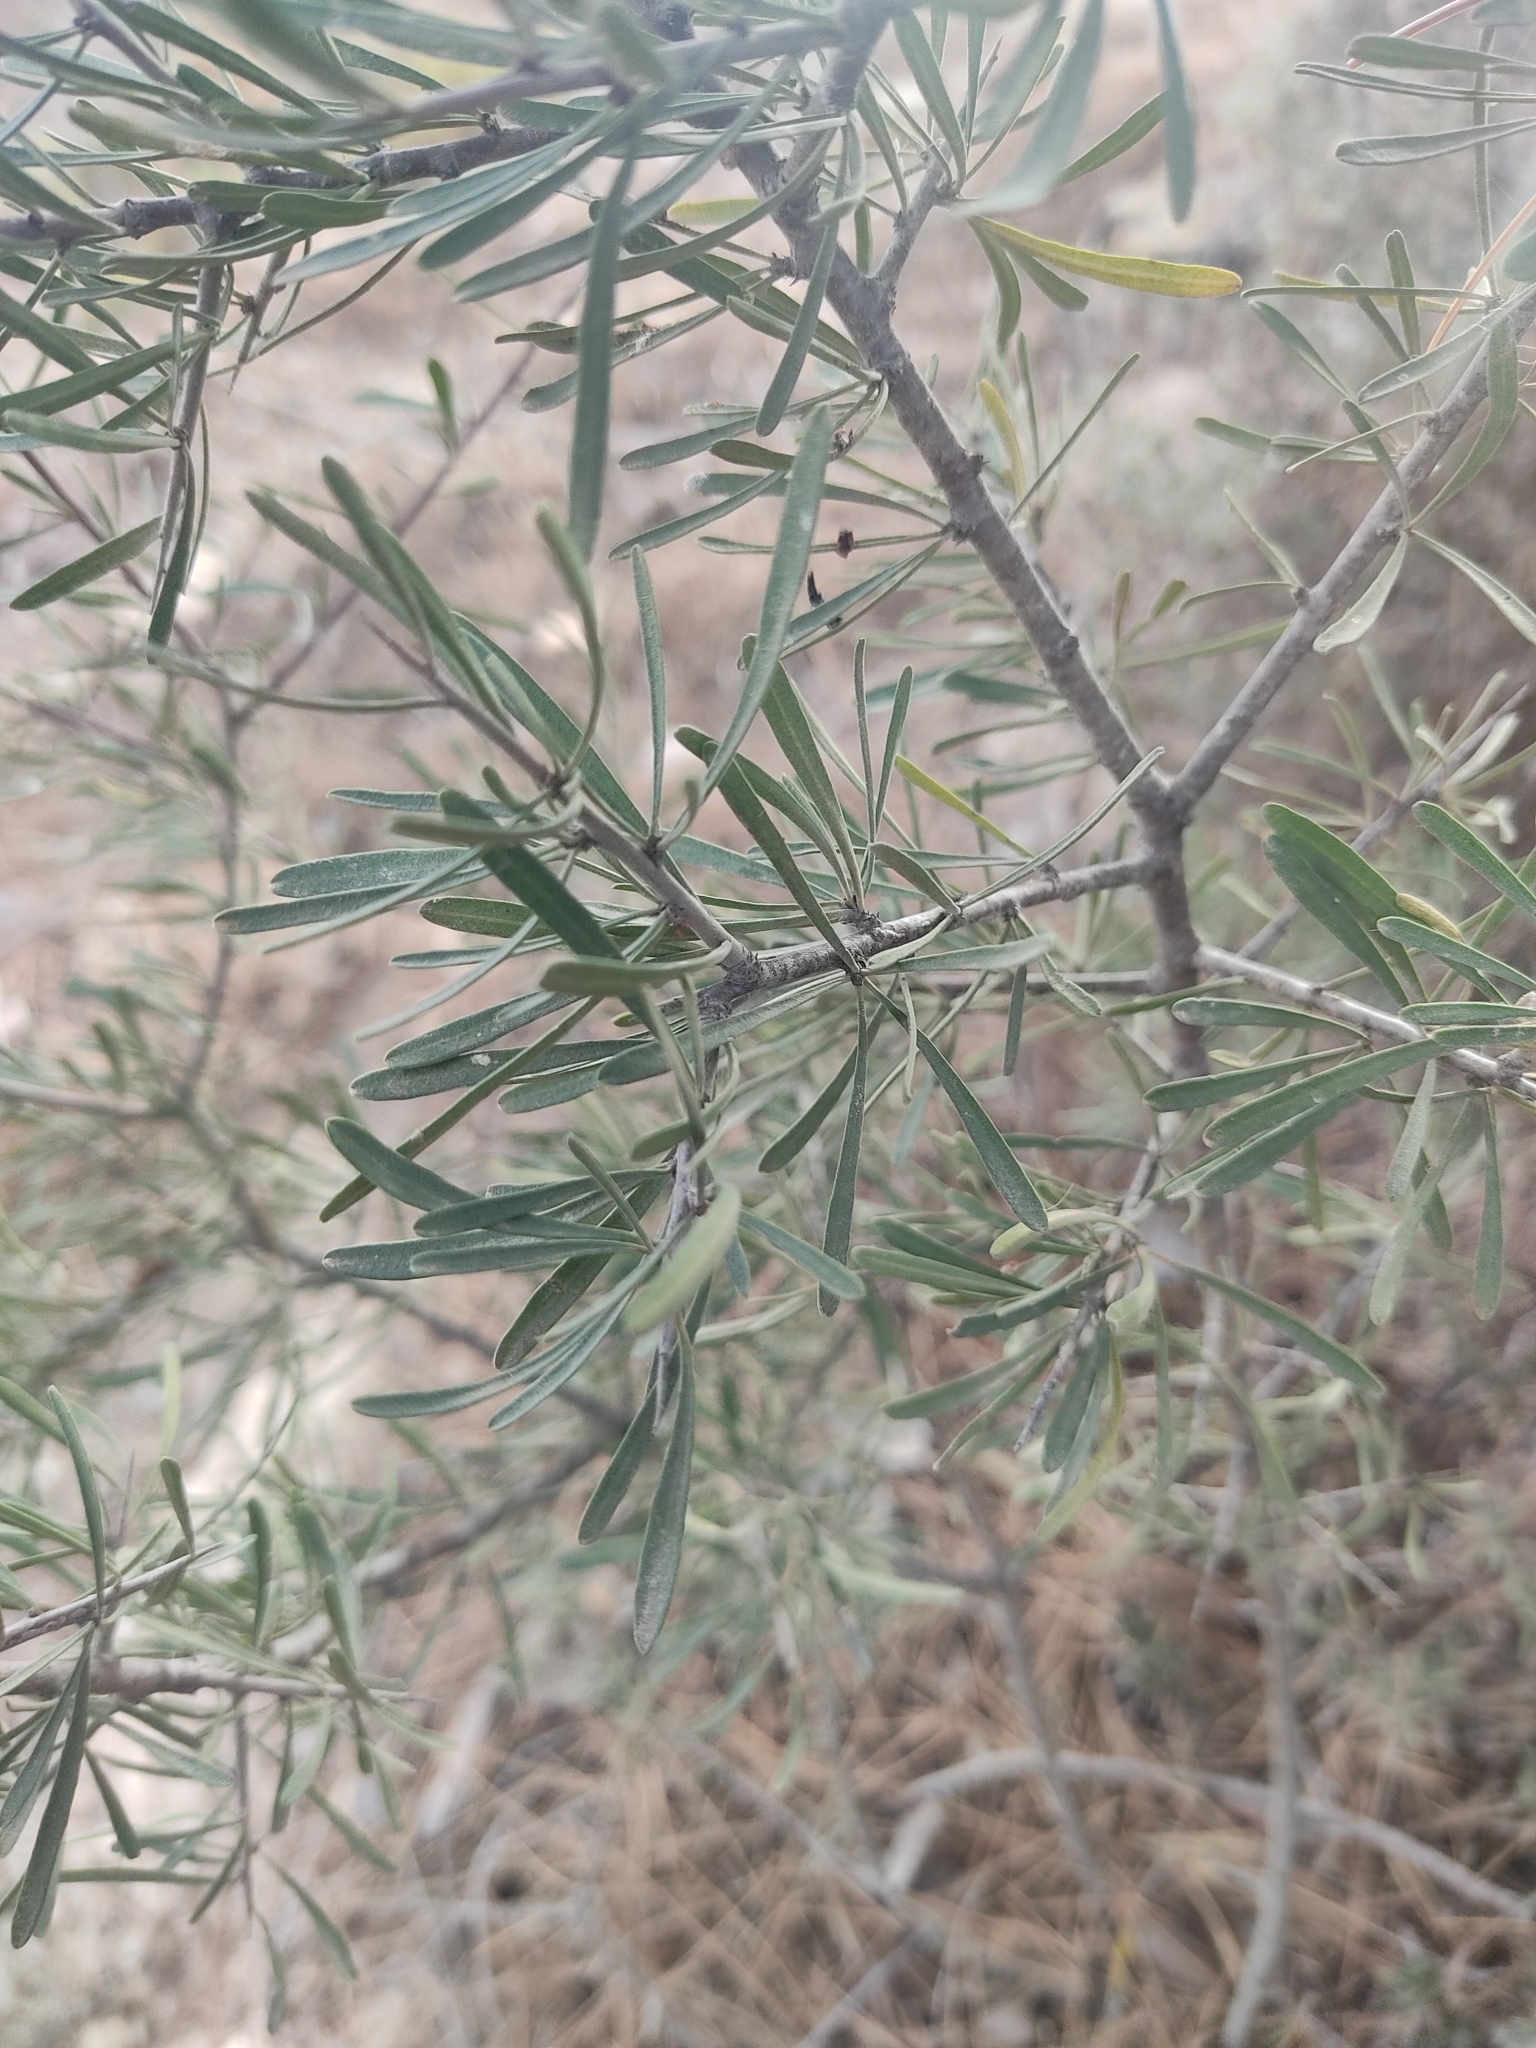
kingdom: Plantae
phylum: Tracheophyta
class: Magnoliopsida
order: Rosales
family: Rhamnaceae
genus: Rhamnus
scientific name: Rhamnus lycioides
